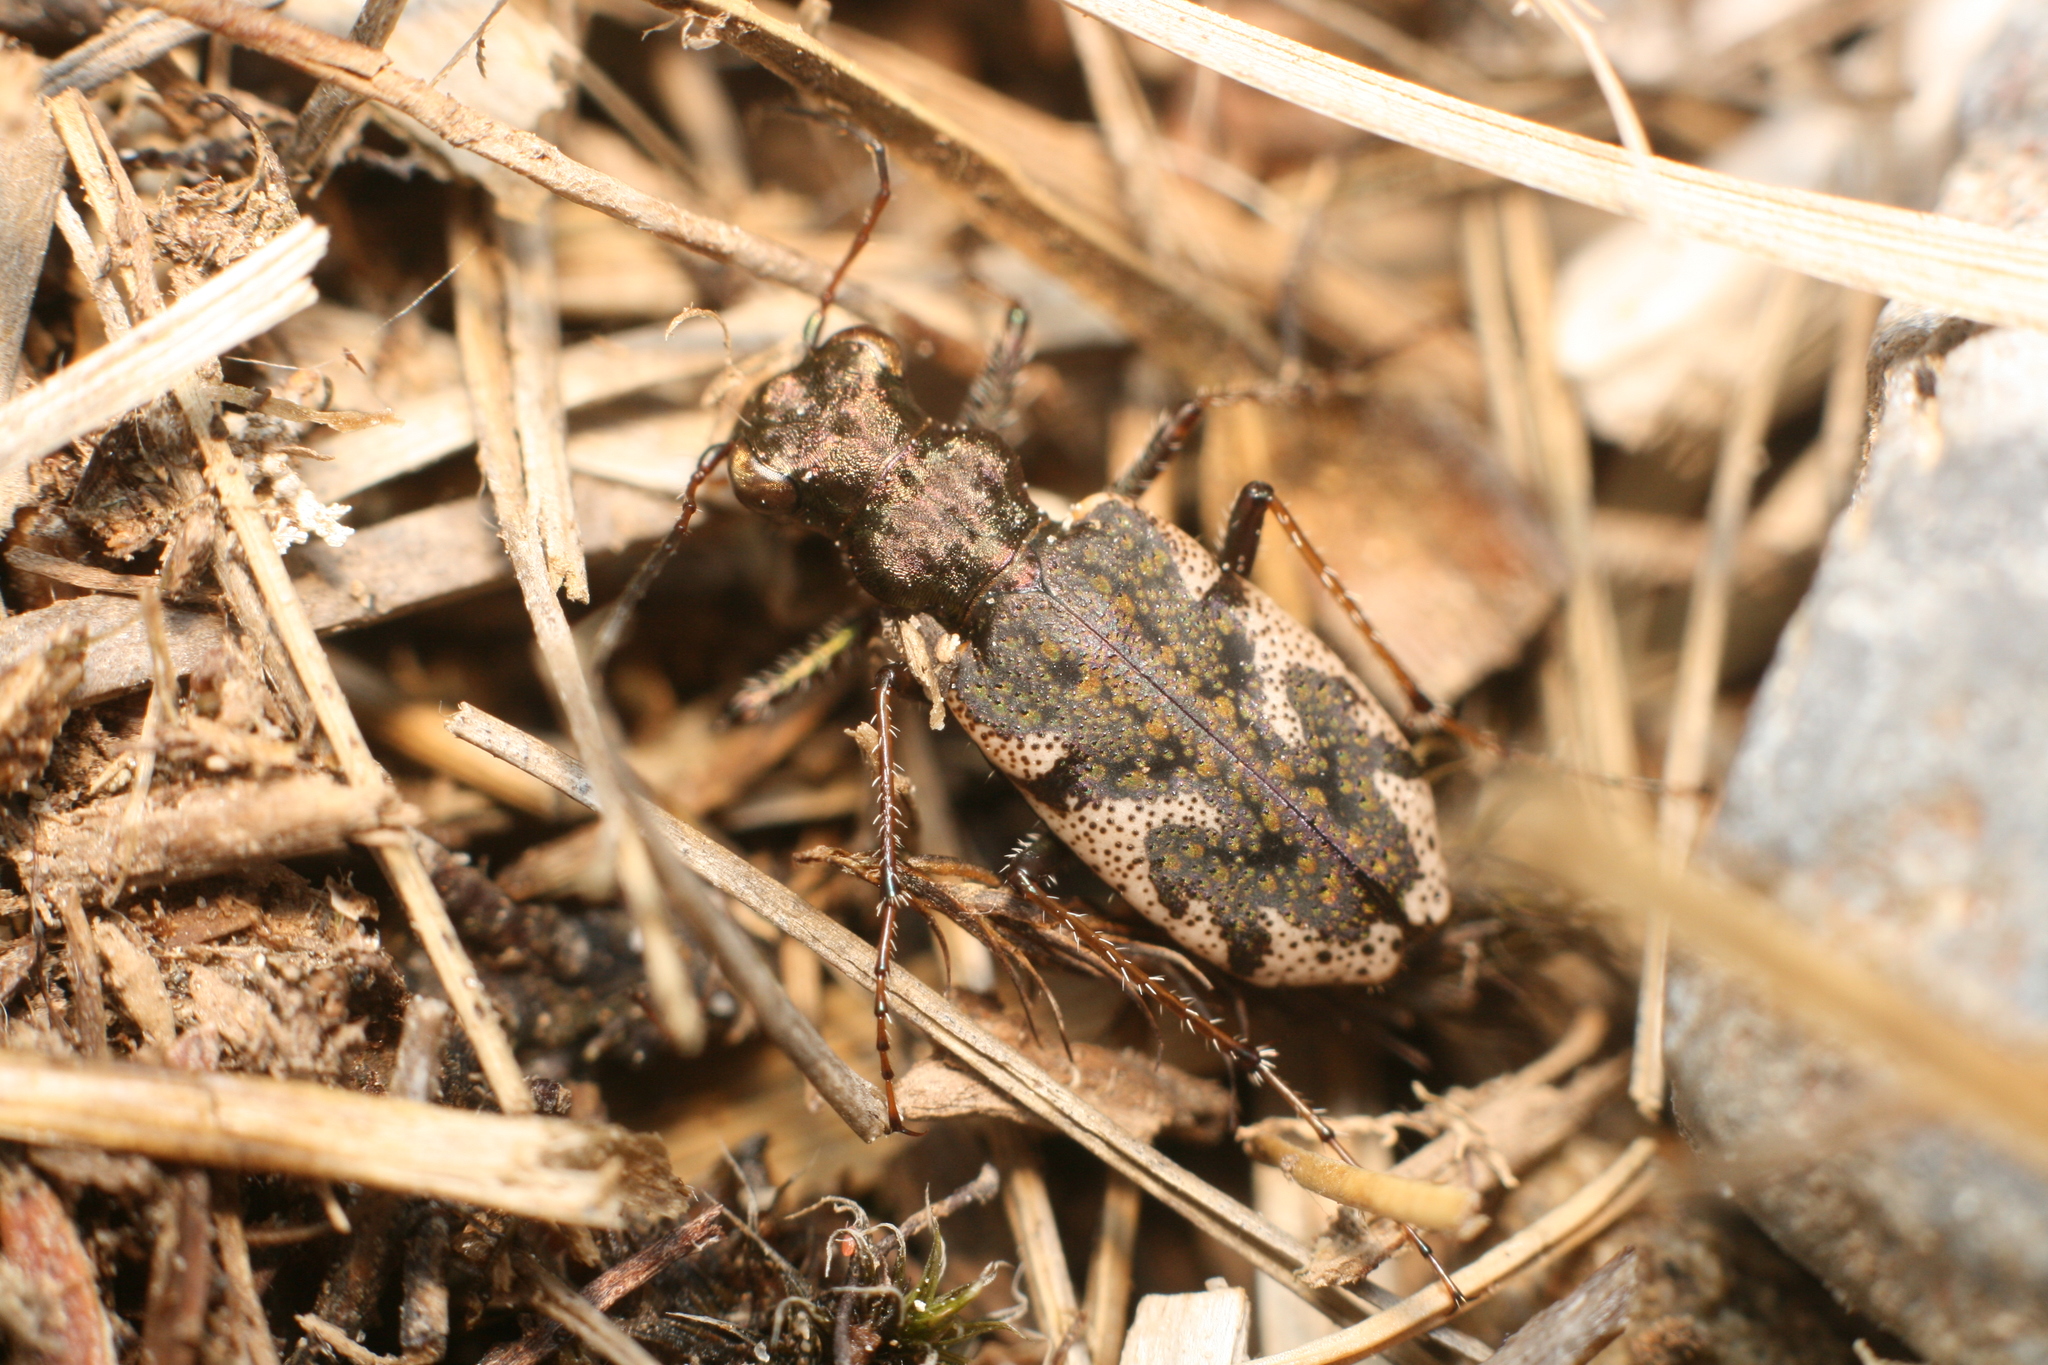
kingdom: Animalia
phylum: Arthropoda
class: Insecta
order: Coleoptera
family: Carabidae
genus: Neocicindela
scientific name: Neocicindela garnerae
